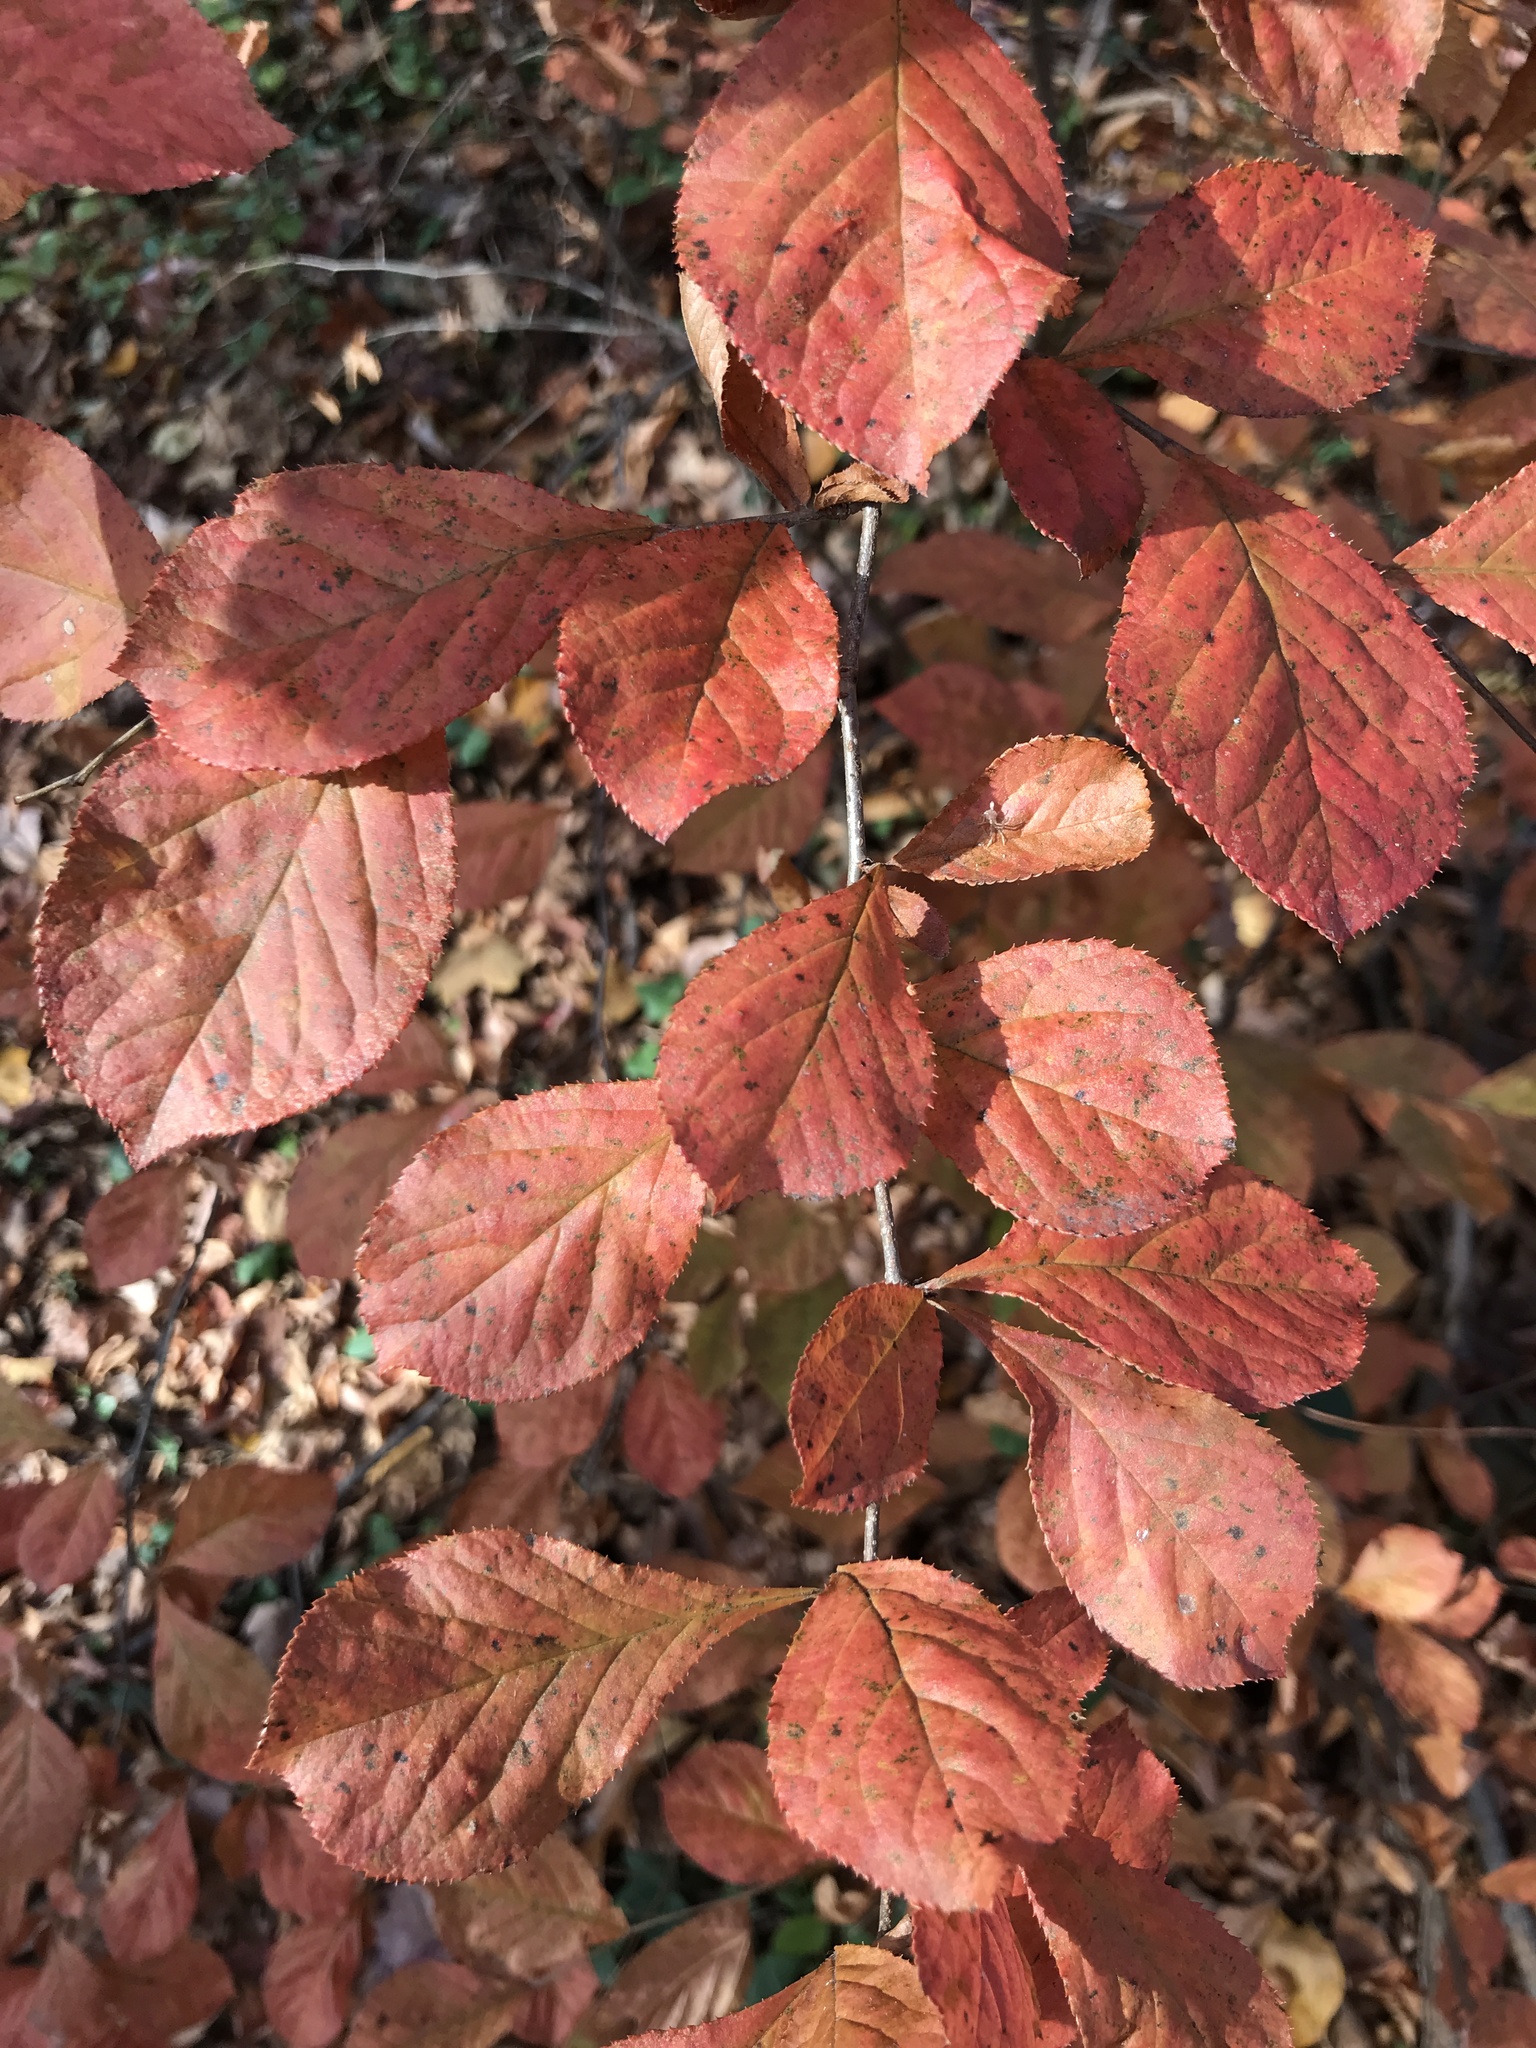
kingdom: Plantae
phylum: Tracheophyta
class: Magnoliopsida
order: Rosales
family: Rosaceae
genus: Pourthiaea
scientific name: Pourthiaea villosa
